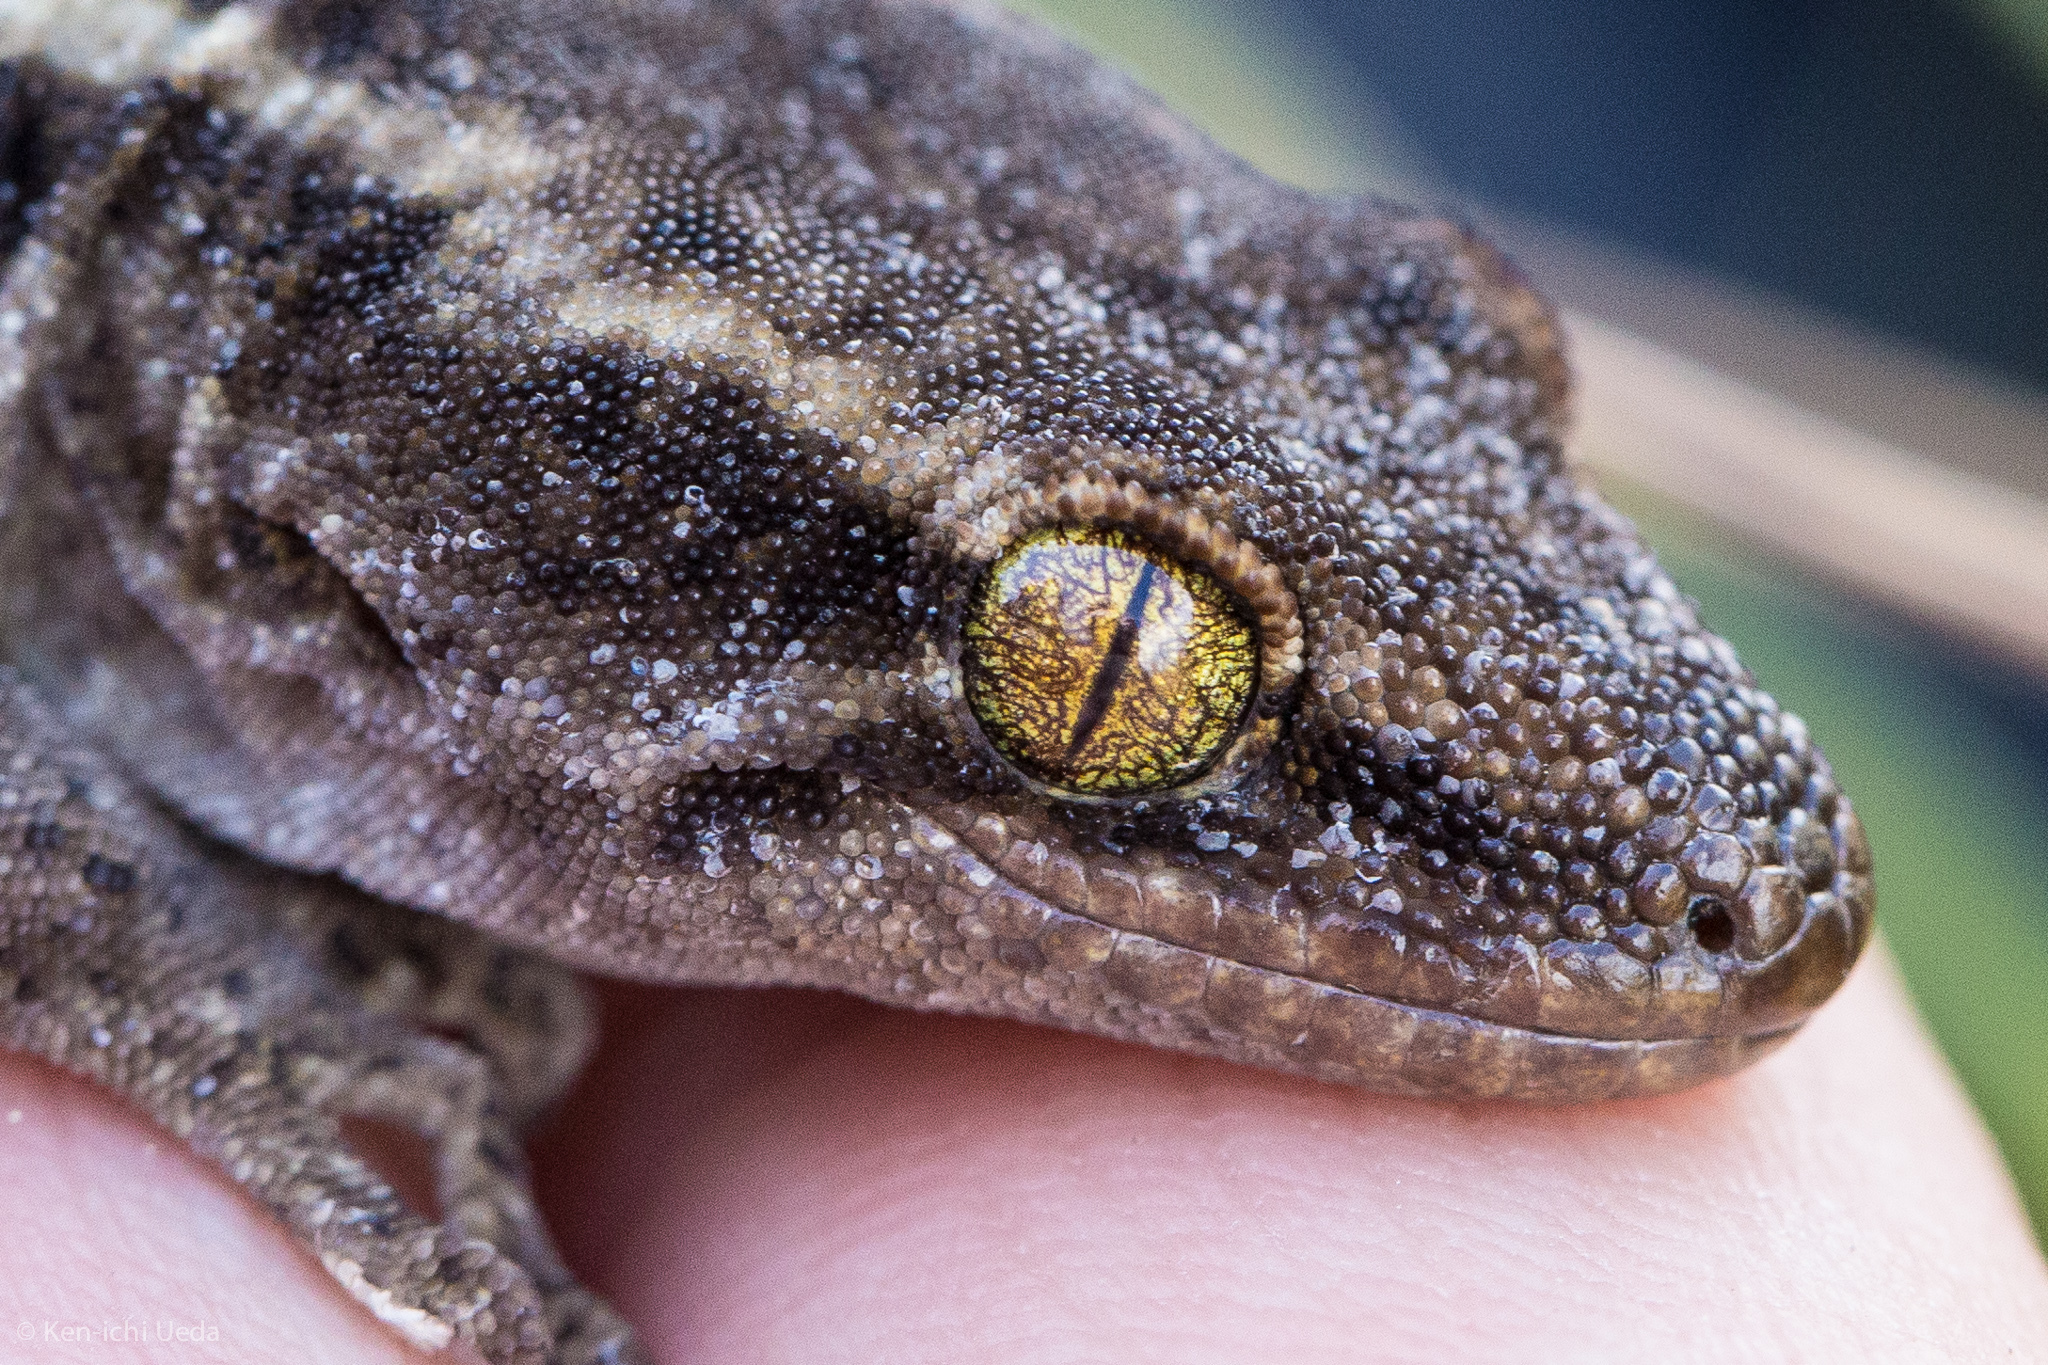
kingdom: Animalia
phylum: Chordata
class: Squamata
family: Diplodactylidae
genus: Woodworthia
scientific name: Woodworthia brunnea
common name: Canterbury gecko
